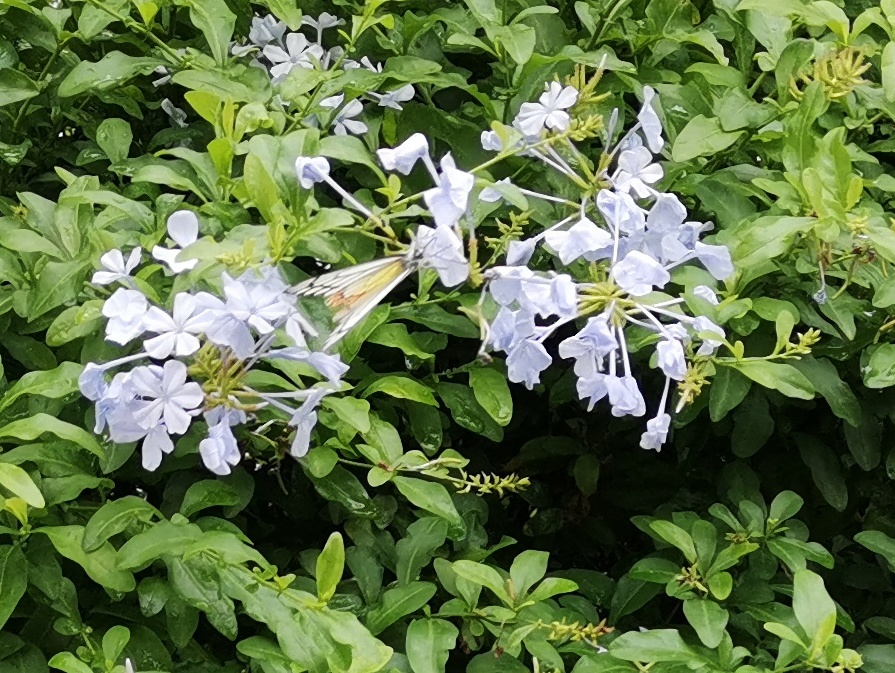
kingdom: Animalia
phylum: Arthropoda
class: Insecta
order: Lepidoptera
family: Pieridae
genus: Delias
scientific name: Delias eucharis
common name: Common jezebel
